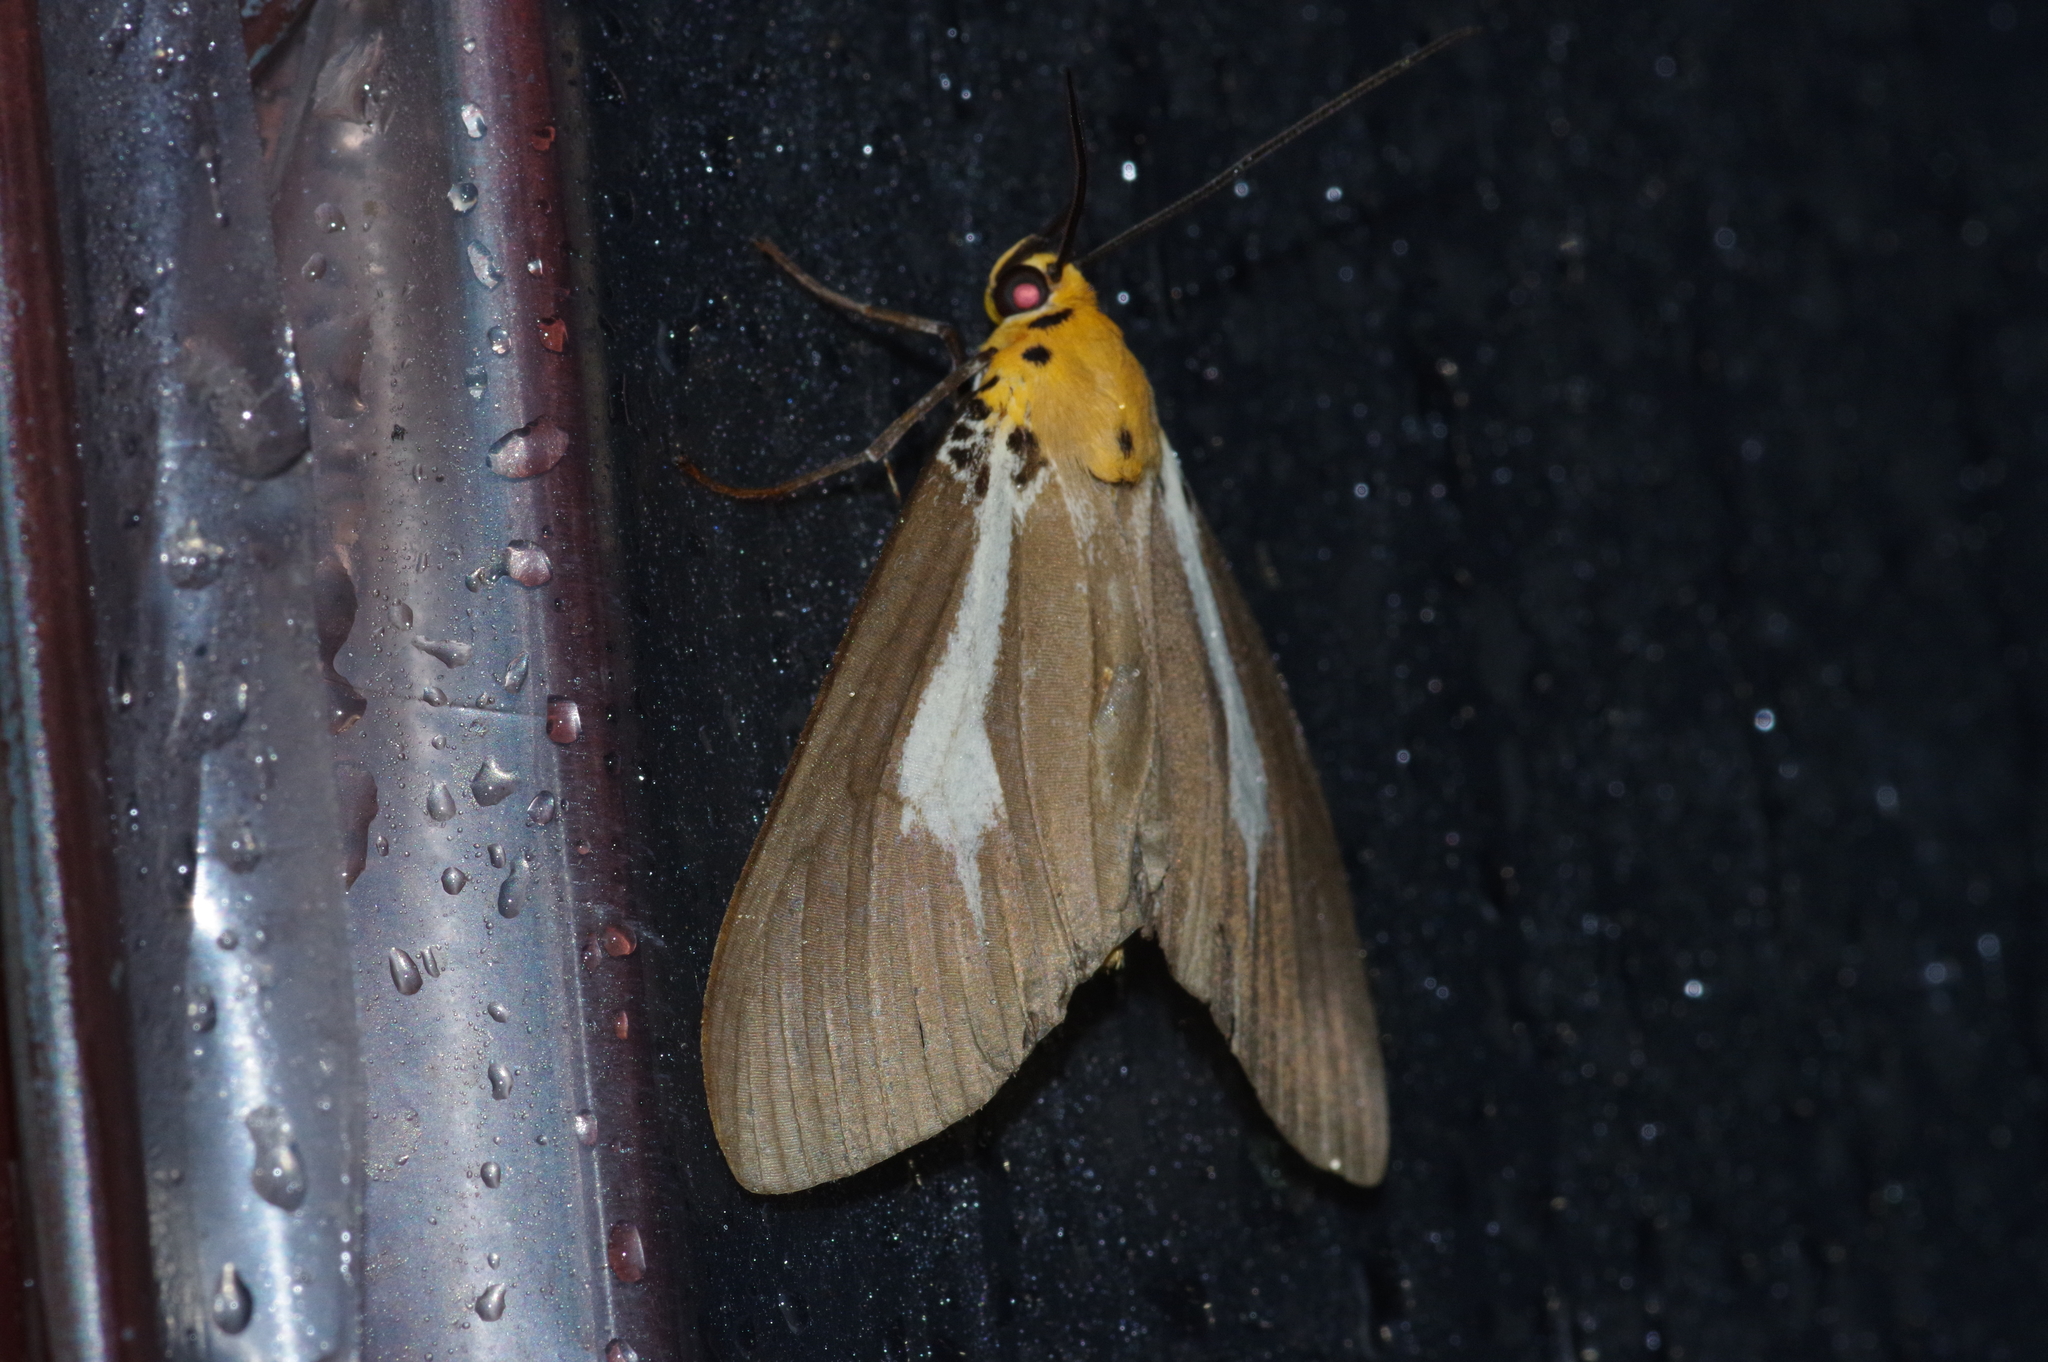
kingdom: Animalia
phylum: Arthropoda
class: Insecta
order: Lepidoptera
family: Erebidae
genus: Asota
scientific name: Asota heliconia
